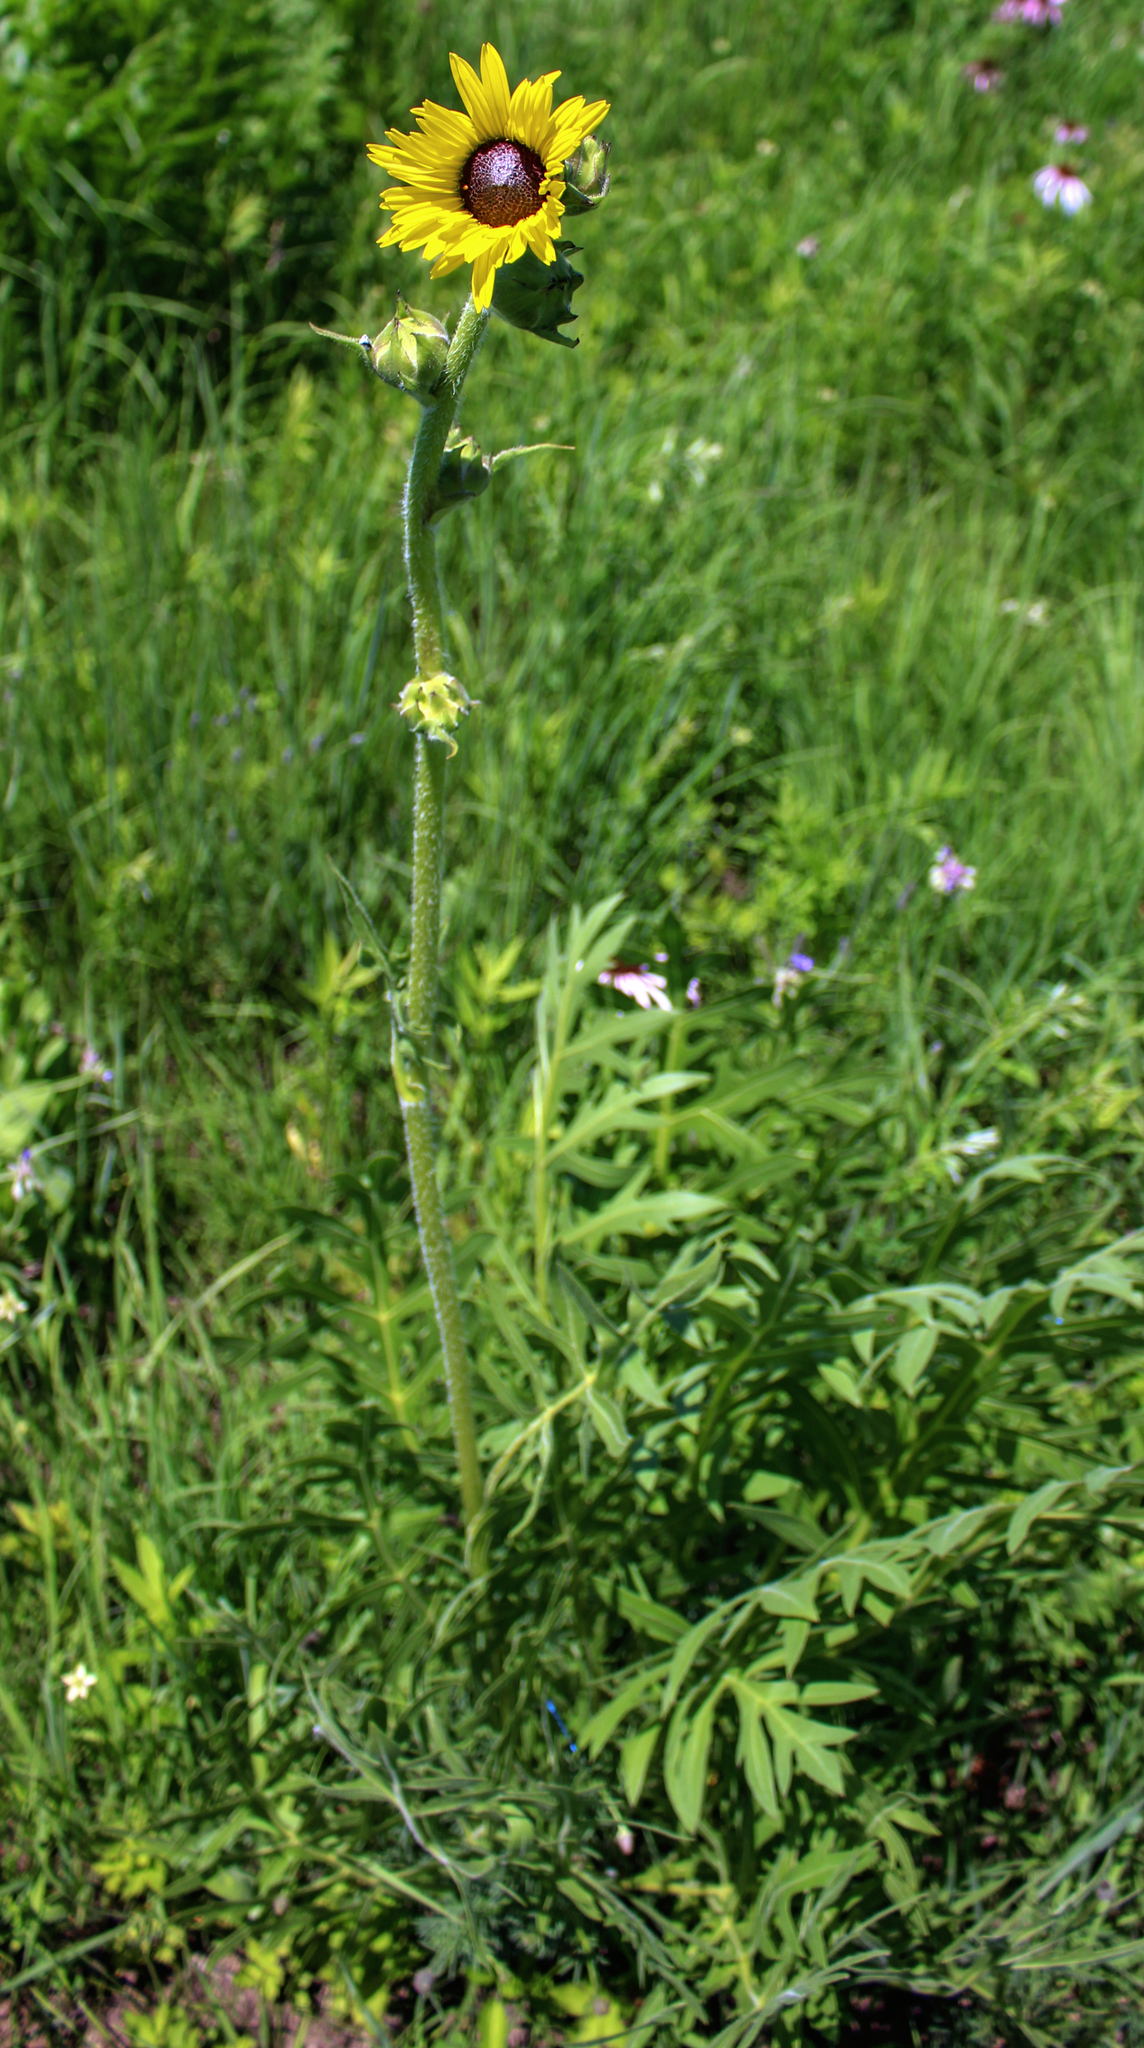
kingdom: Plantae
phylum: Tracheophyta
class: Magnoliopsida
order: Asterales
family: Asteraceae
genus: Silphium
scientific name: Silphium laciniatum
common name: Polarplant
